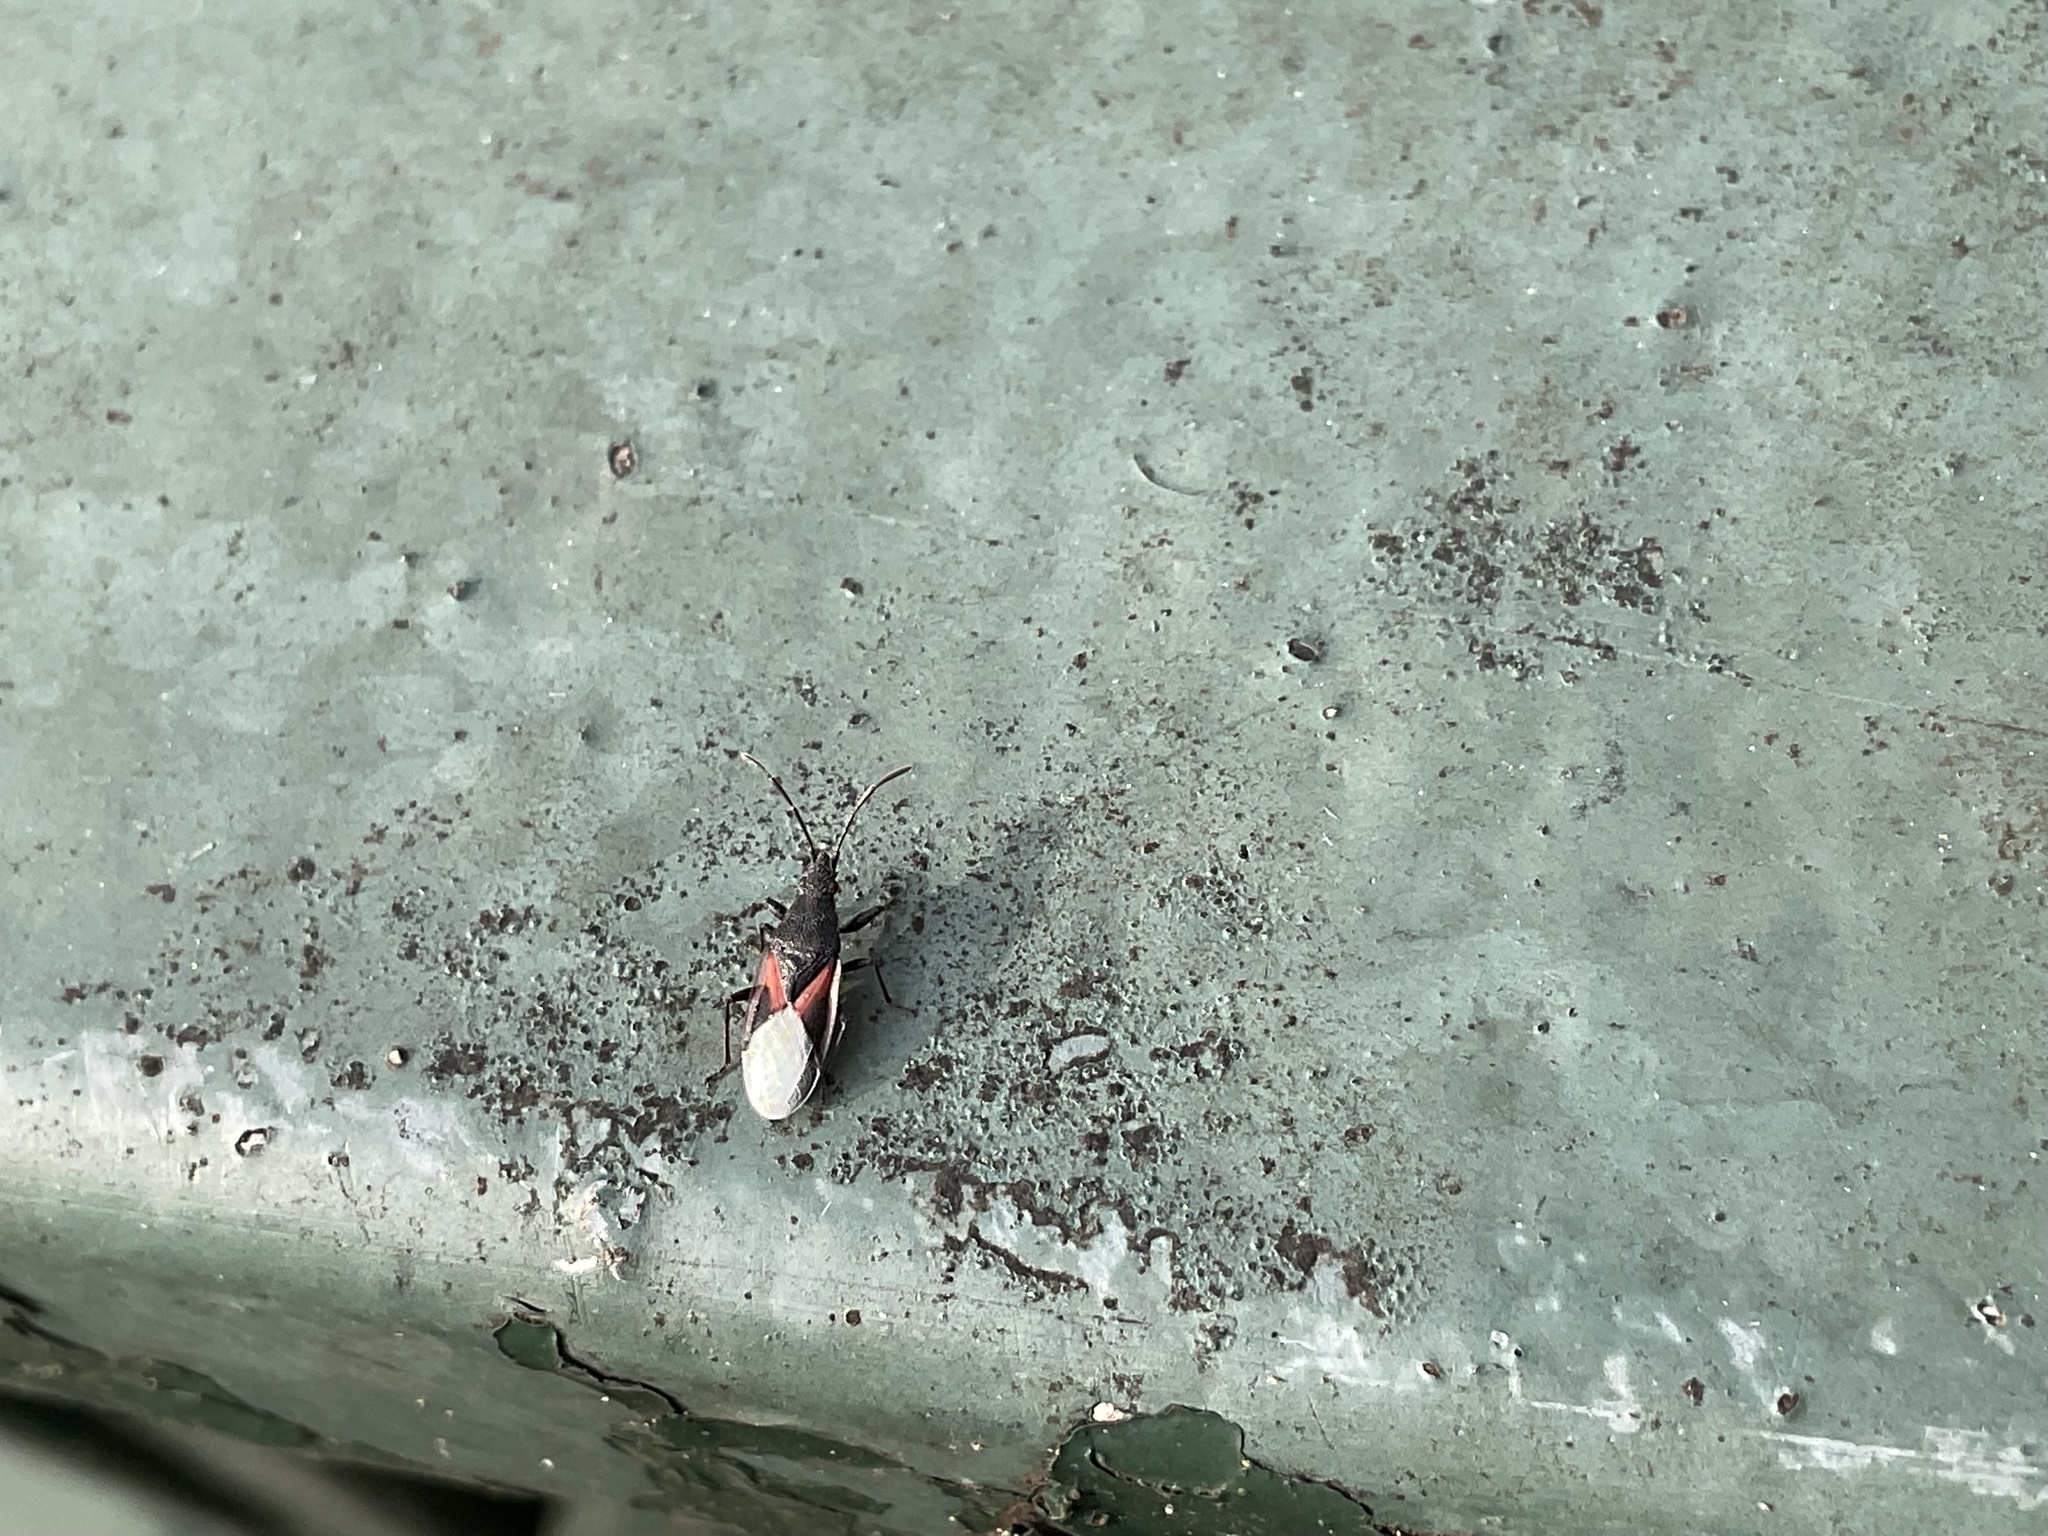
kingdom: Animalia
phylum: Arthropoda
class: Insecta
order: Hemiptera
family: Oxycarenidae
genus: Oxycarenus
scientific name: Oxycarenus lavaterae
